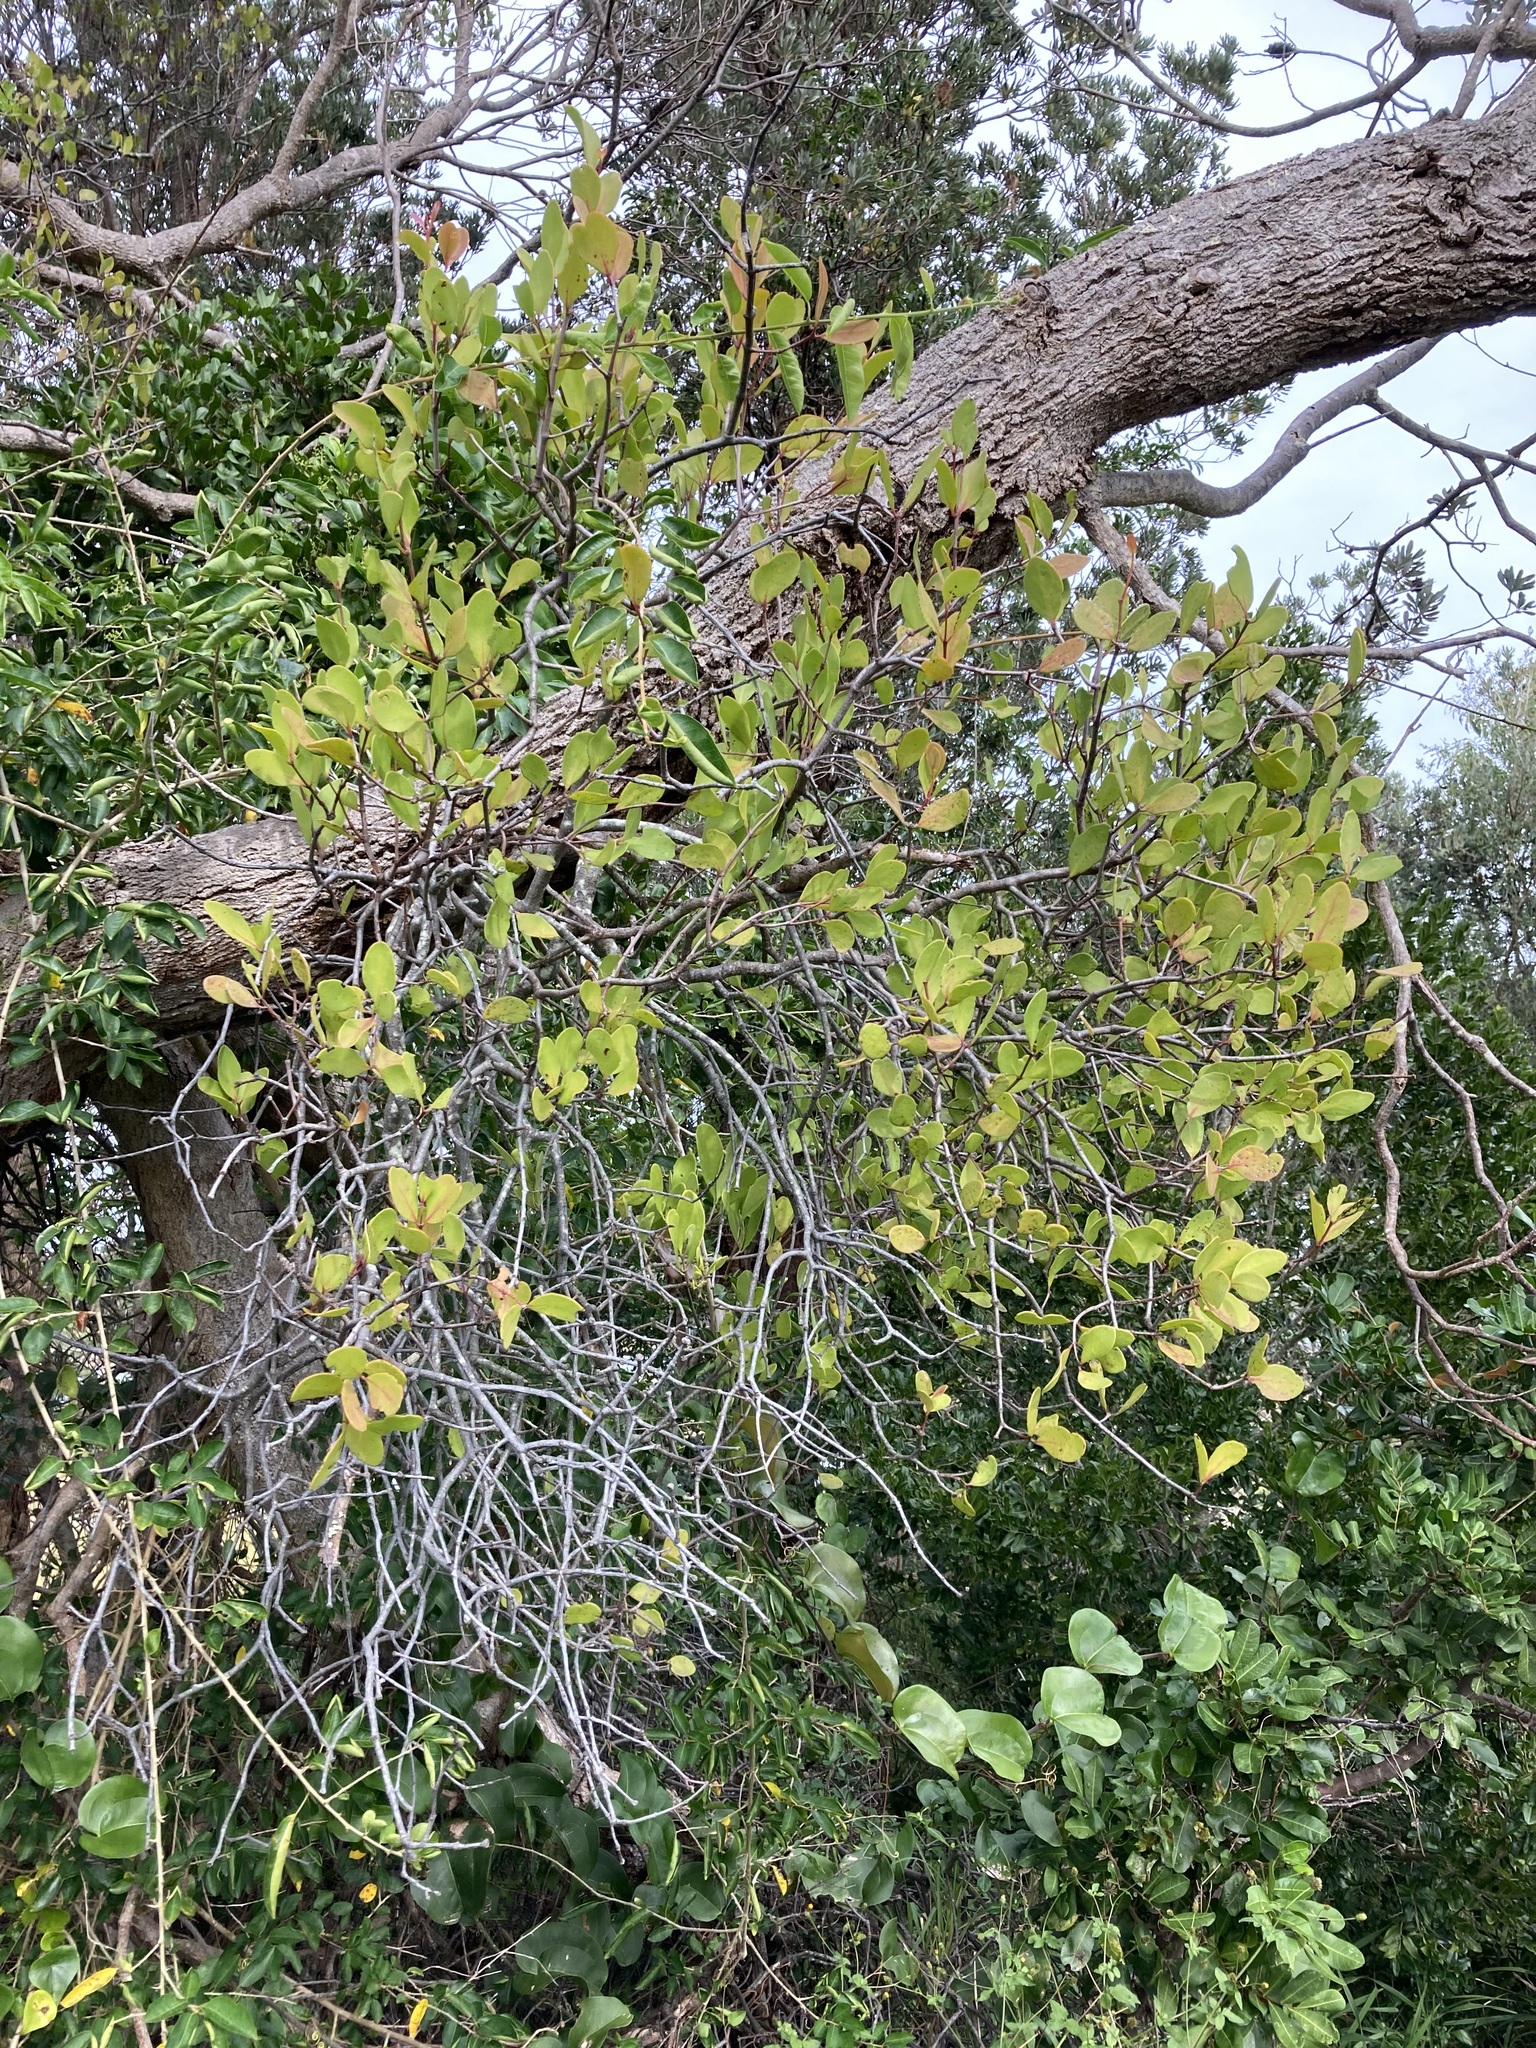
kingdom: Plantae
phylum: Tracheophyta
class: Magnoliopsida
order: Santalales
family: Loranthaceae
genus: Muellerina
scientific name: Muellerina celastroides
